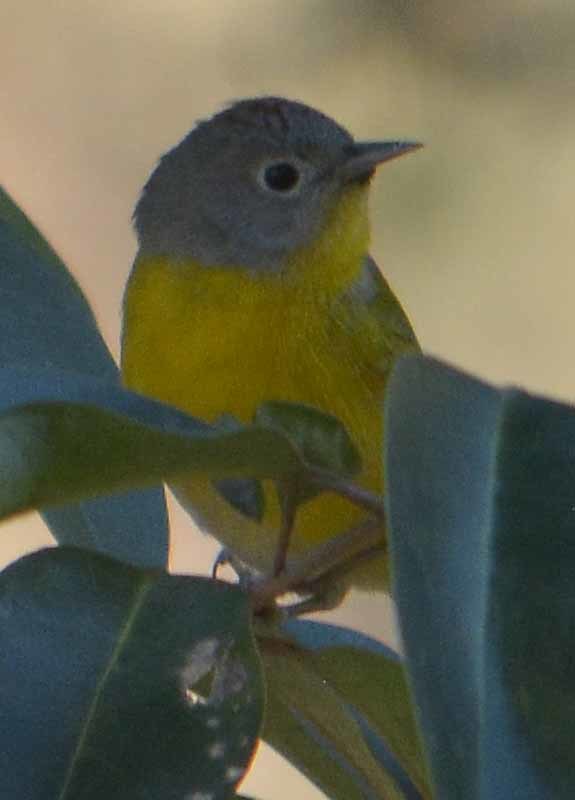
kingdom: Animalia
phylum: Chordata
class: Aves
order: Passeriformes
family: Parulidae
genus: Leiothlypis
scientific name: Leiothlypis ruficapilla
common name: Nashville warbler
